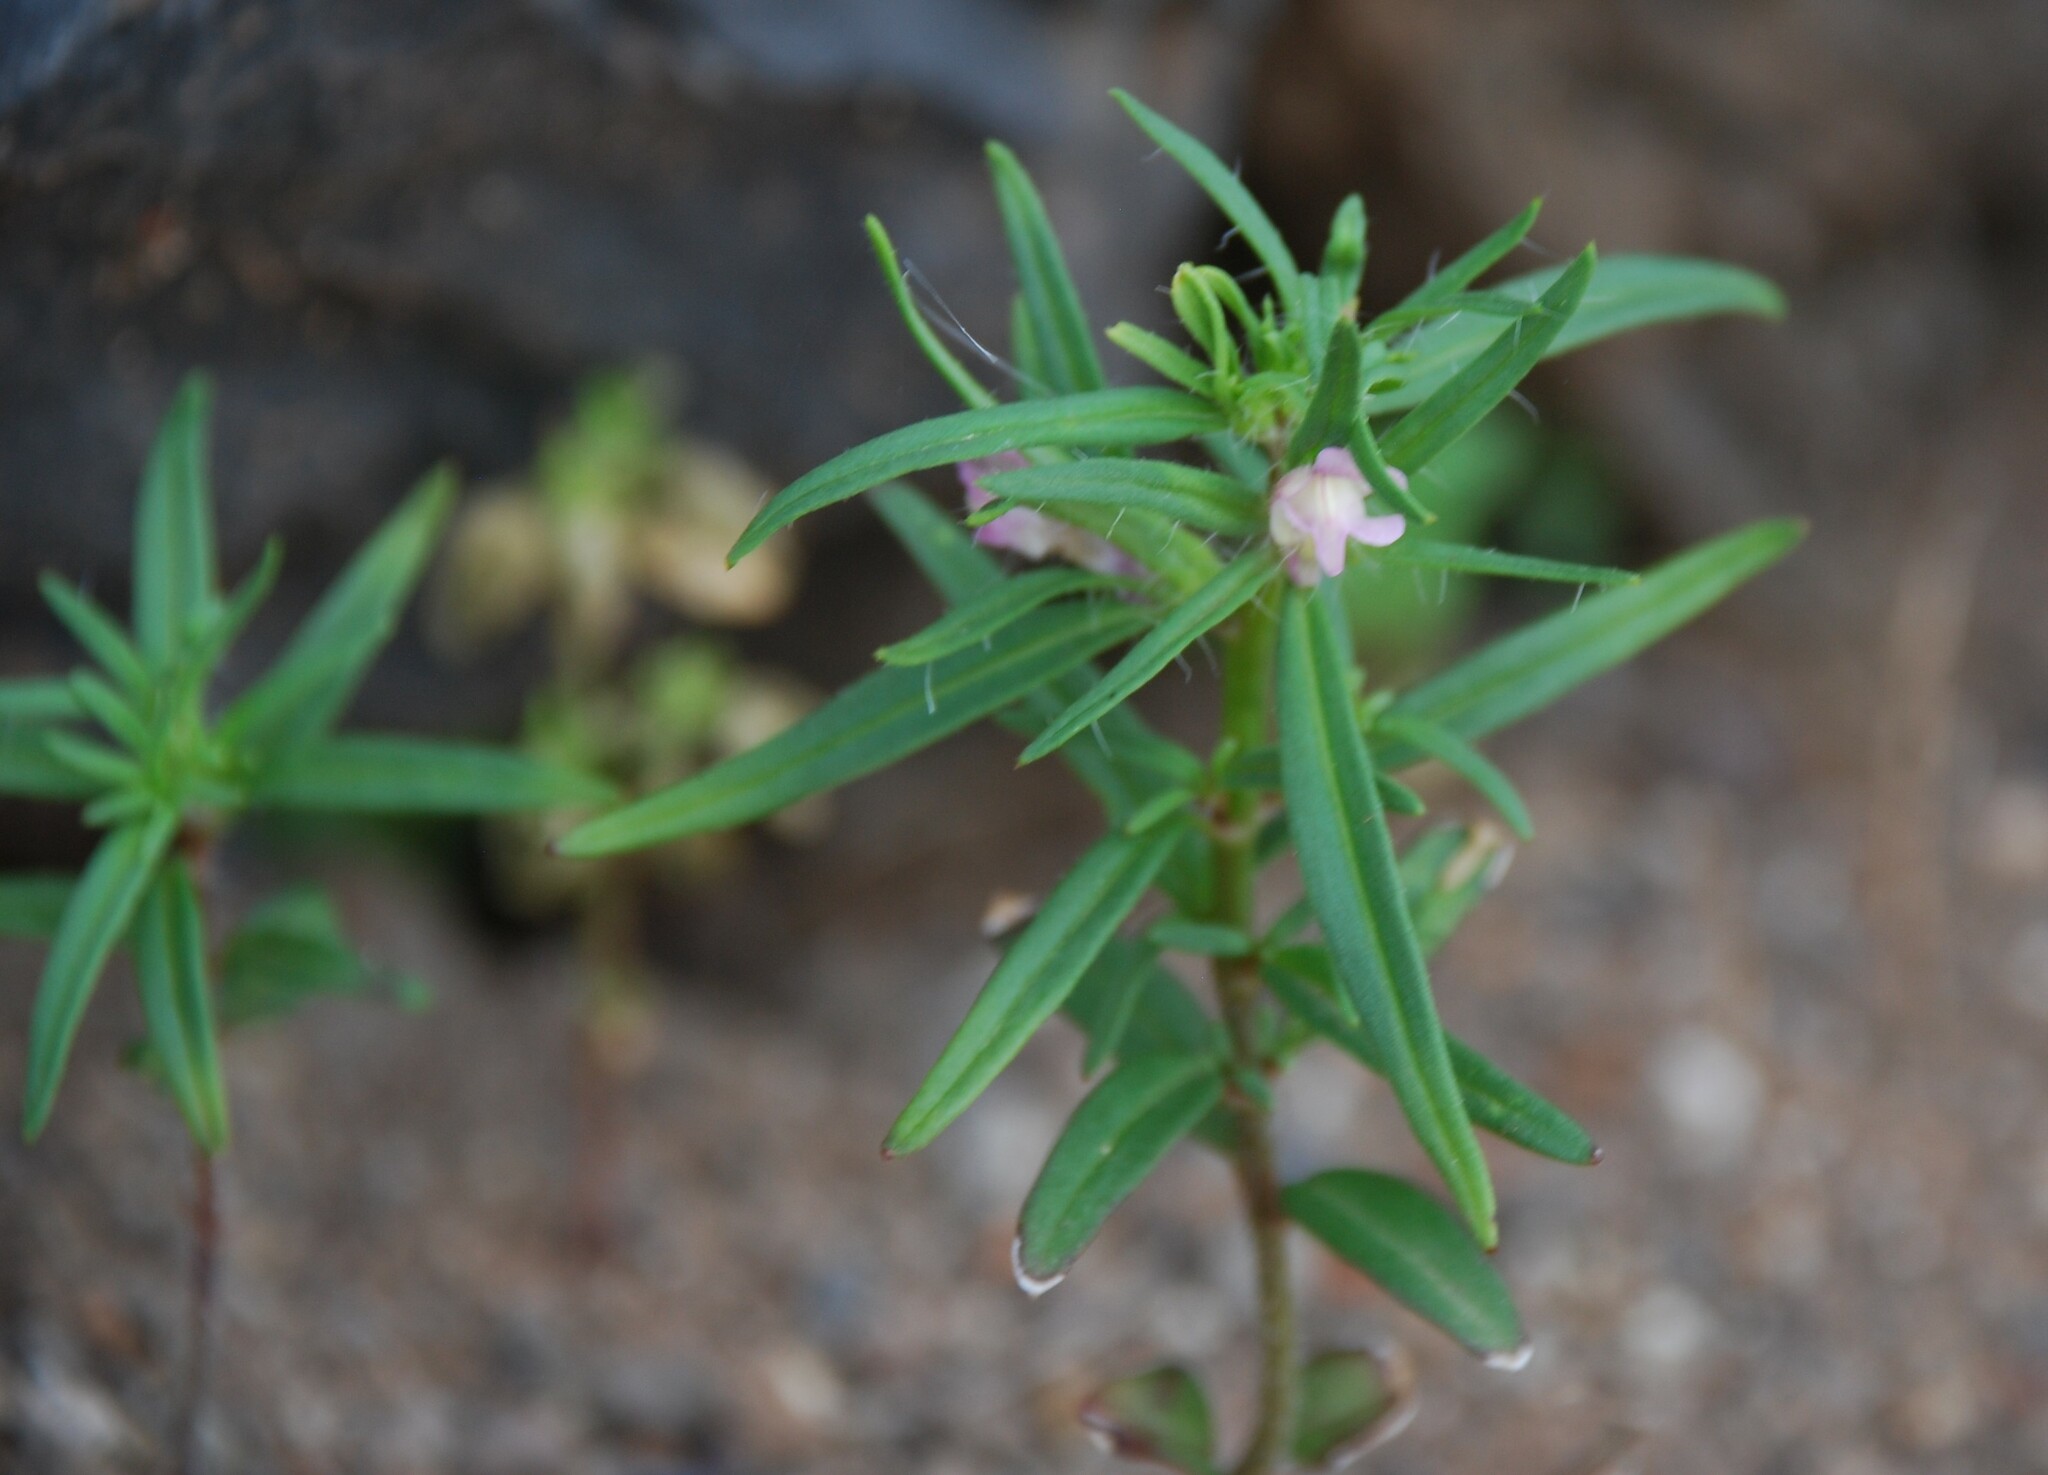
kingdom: Plantae
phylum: Tracheophyta
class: Magnoliopsida
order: Lamiales
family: Plantaginaceae
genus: Misopates
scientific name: Misopates orontium
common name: Weasel's-snout
